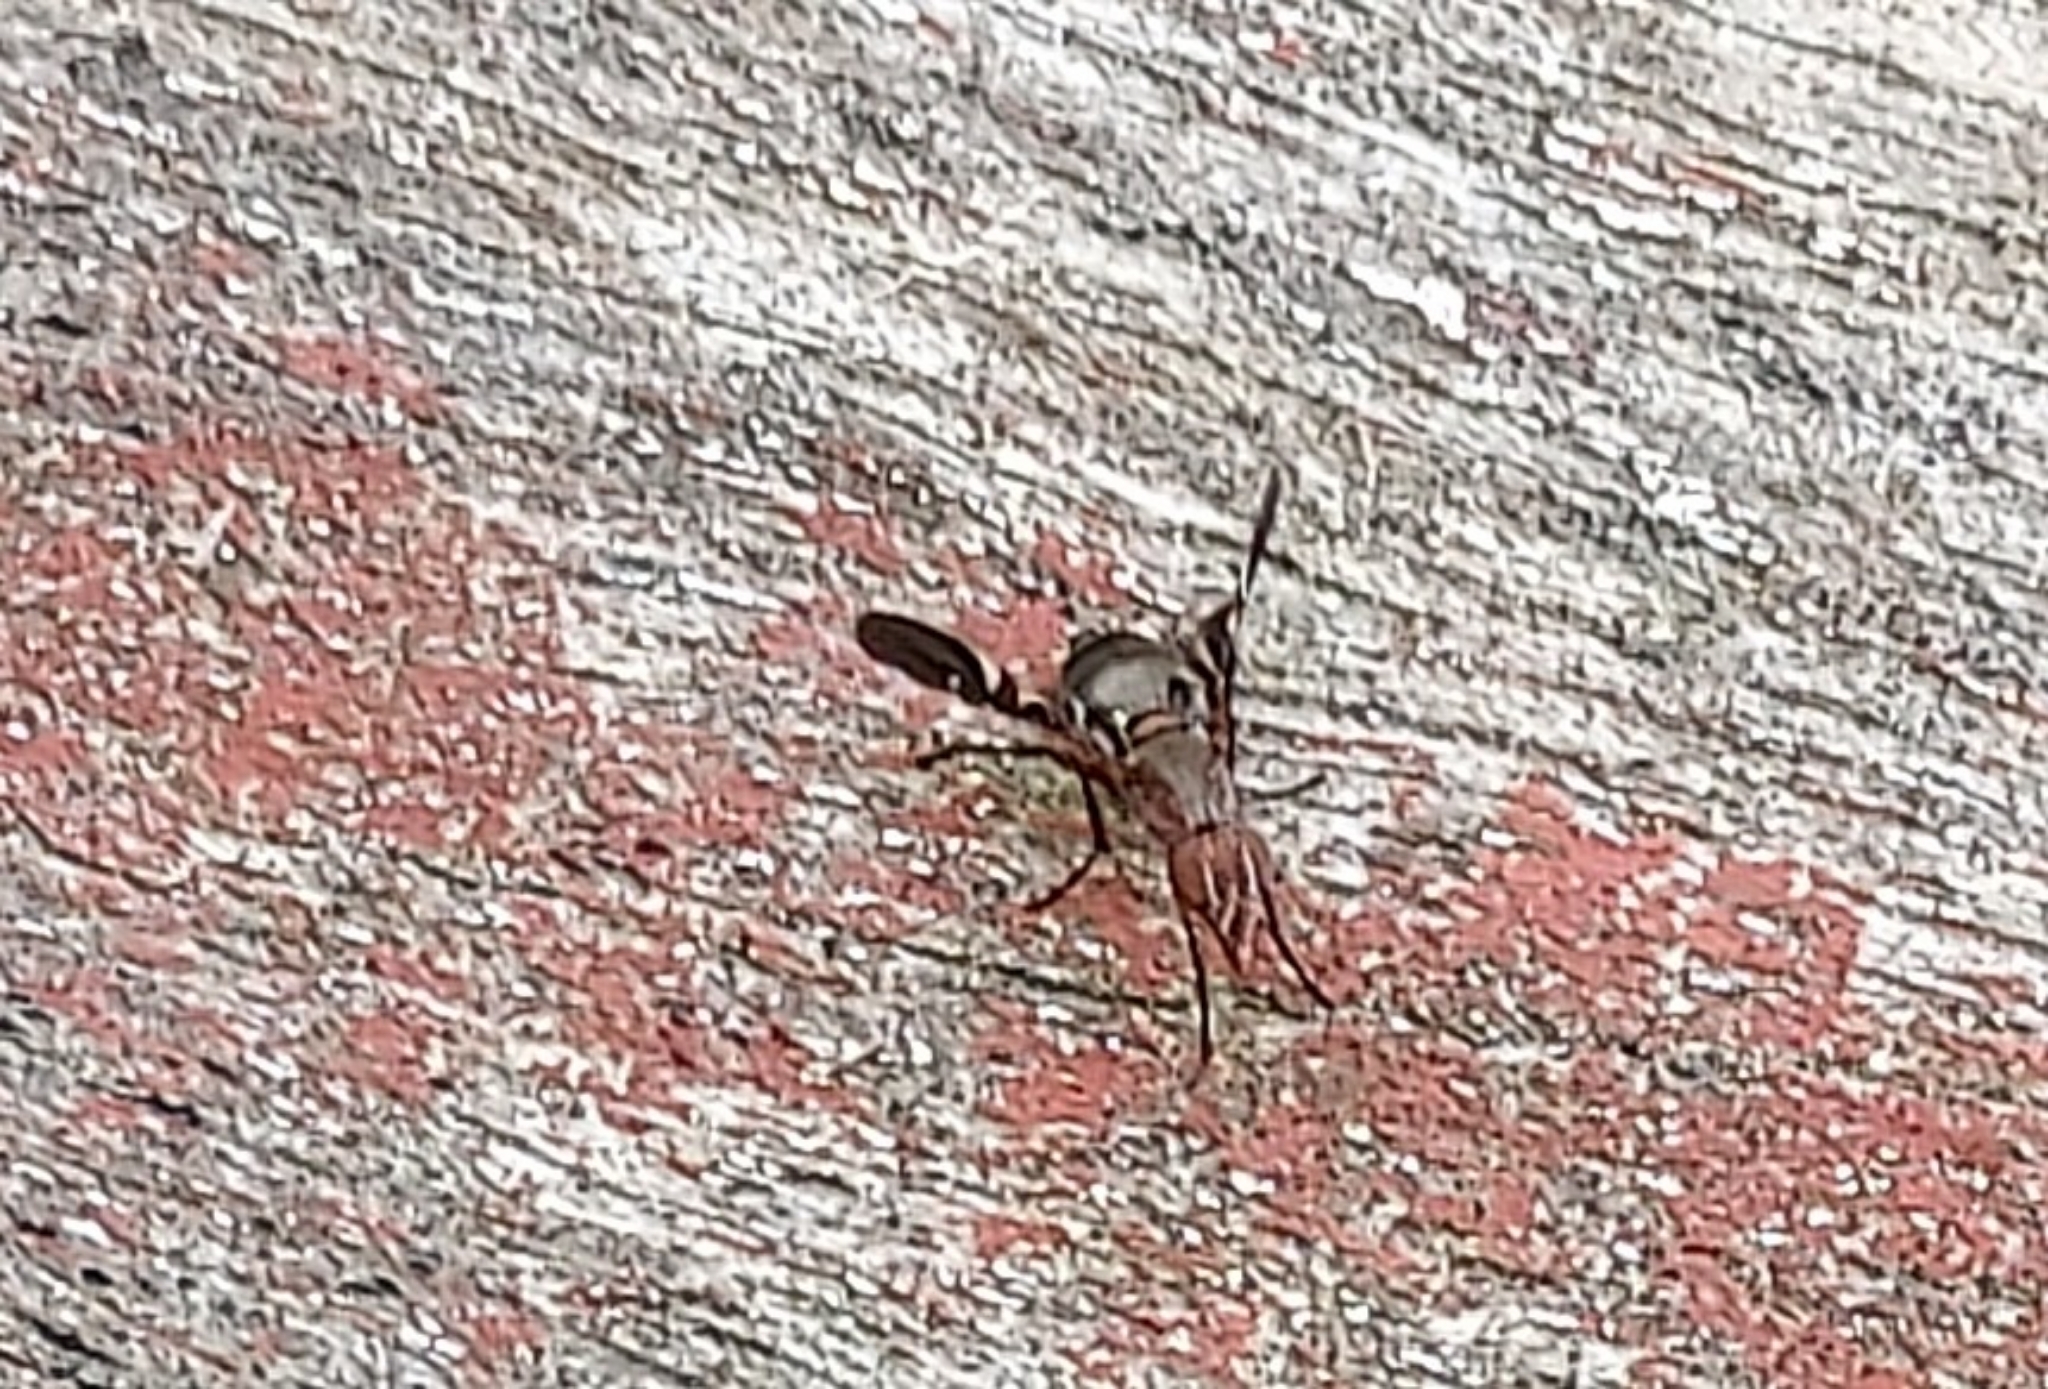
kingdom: Animalia
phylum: Arthropoda
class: Insecta
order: Diptera
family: Ulidiidae
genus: Delphinia
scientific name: Delphinia picta
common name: Common picture-winged fly
